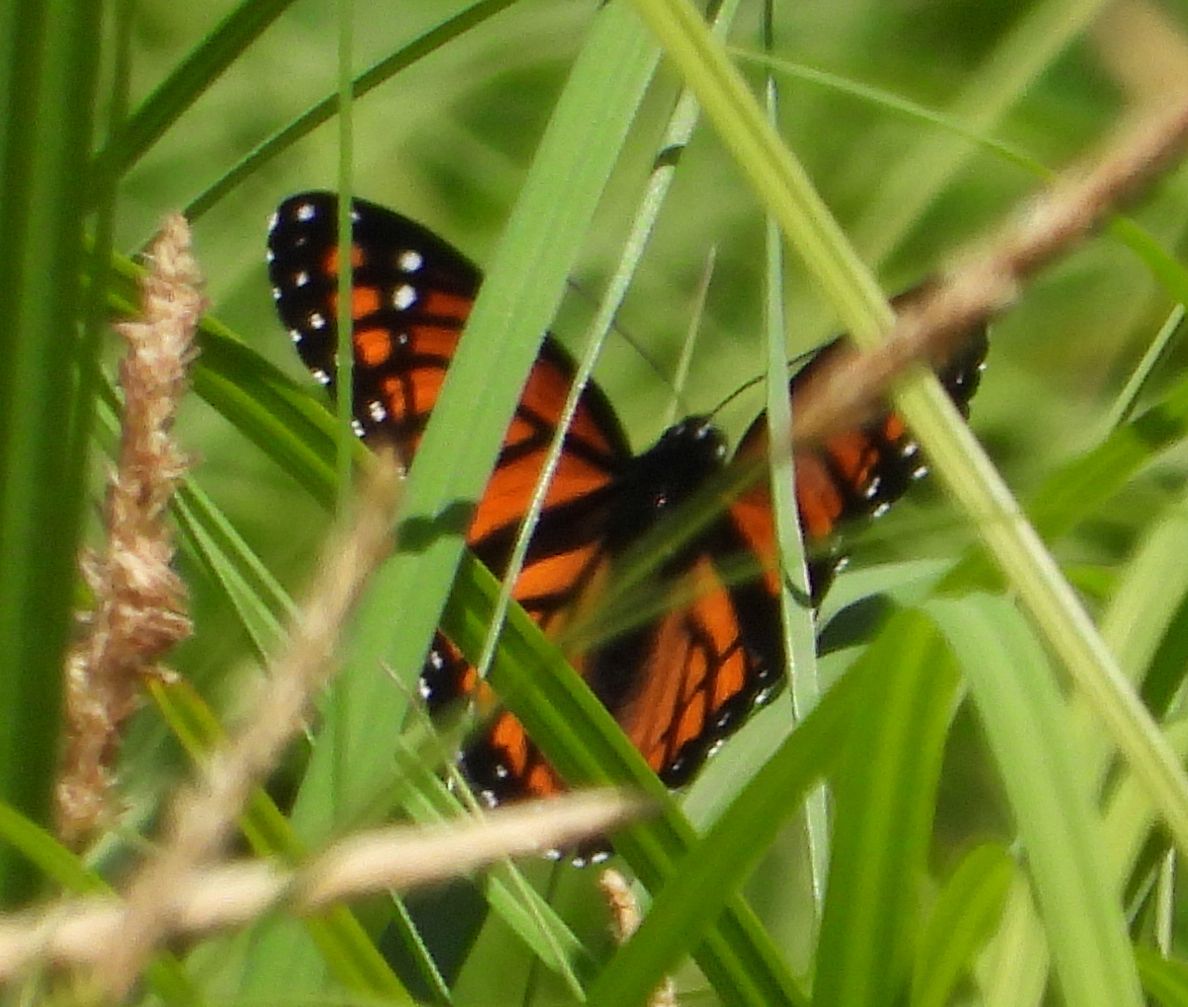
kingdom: Animalia
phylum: Arthropoda
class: Insecta
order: Lepidoptera
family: Nymphalidae
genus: Limenitis
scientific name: Limenitis archippus
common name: Viceroy
